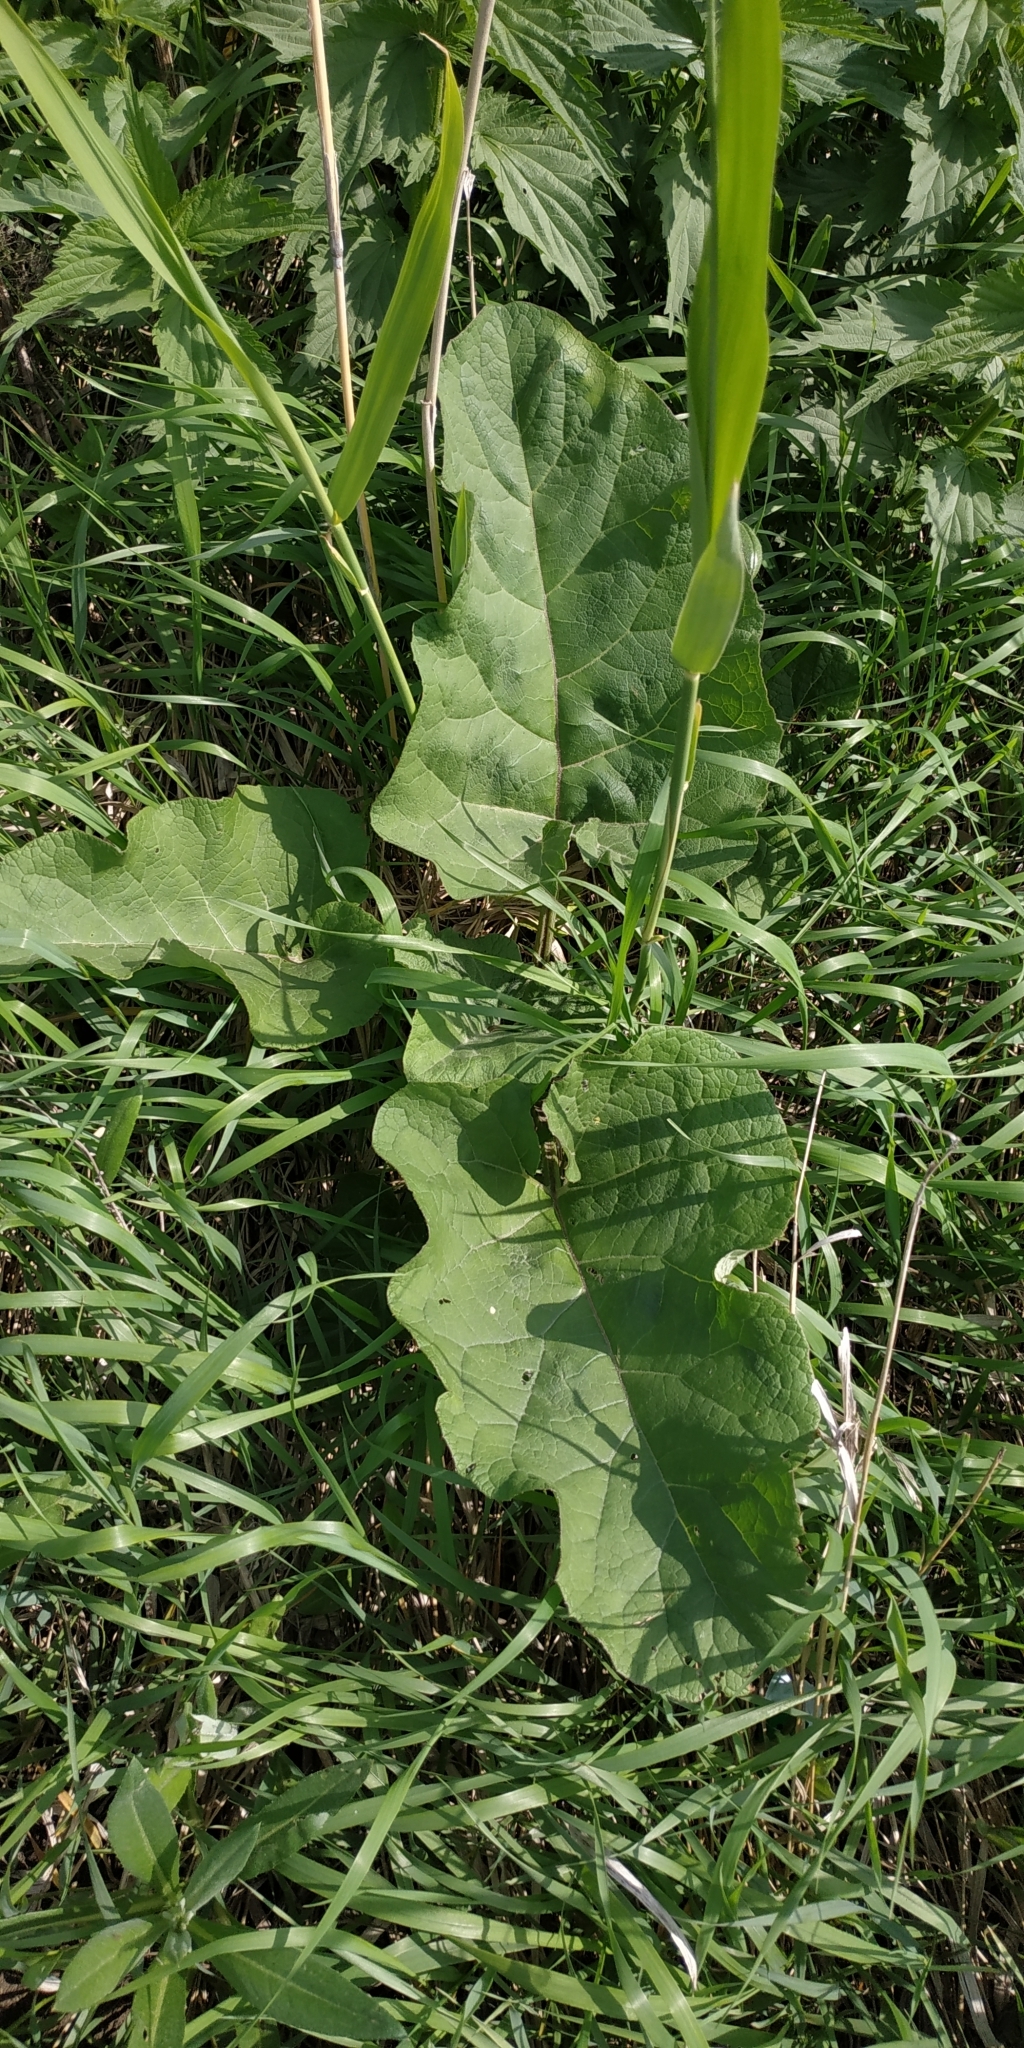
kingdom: Plantae
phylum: Tracheophyta
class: Magnoliopsida
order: Asterales
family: Asteraceae
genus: Arctium
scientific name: Arctium tomentosum
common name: Woolly burdock
